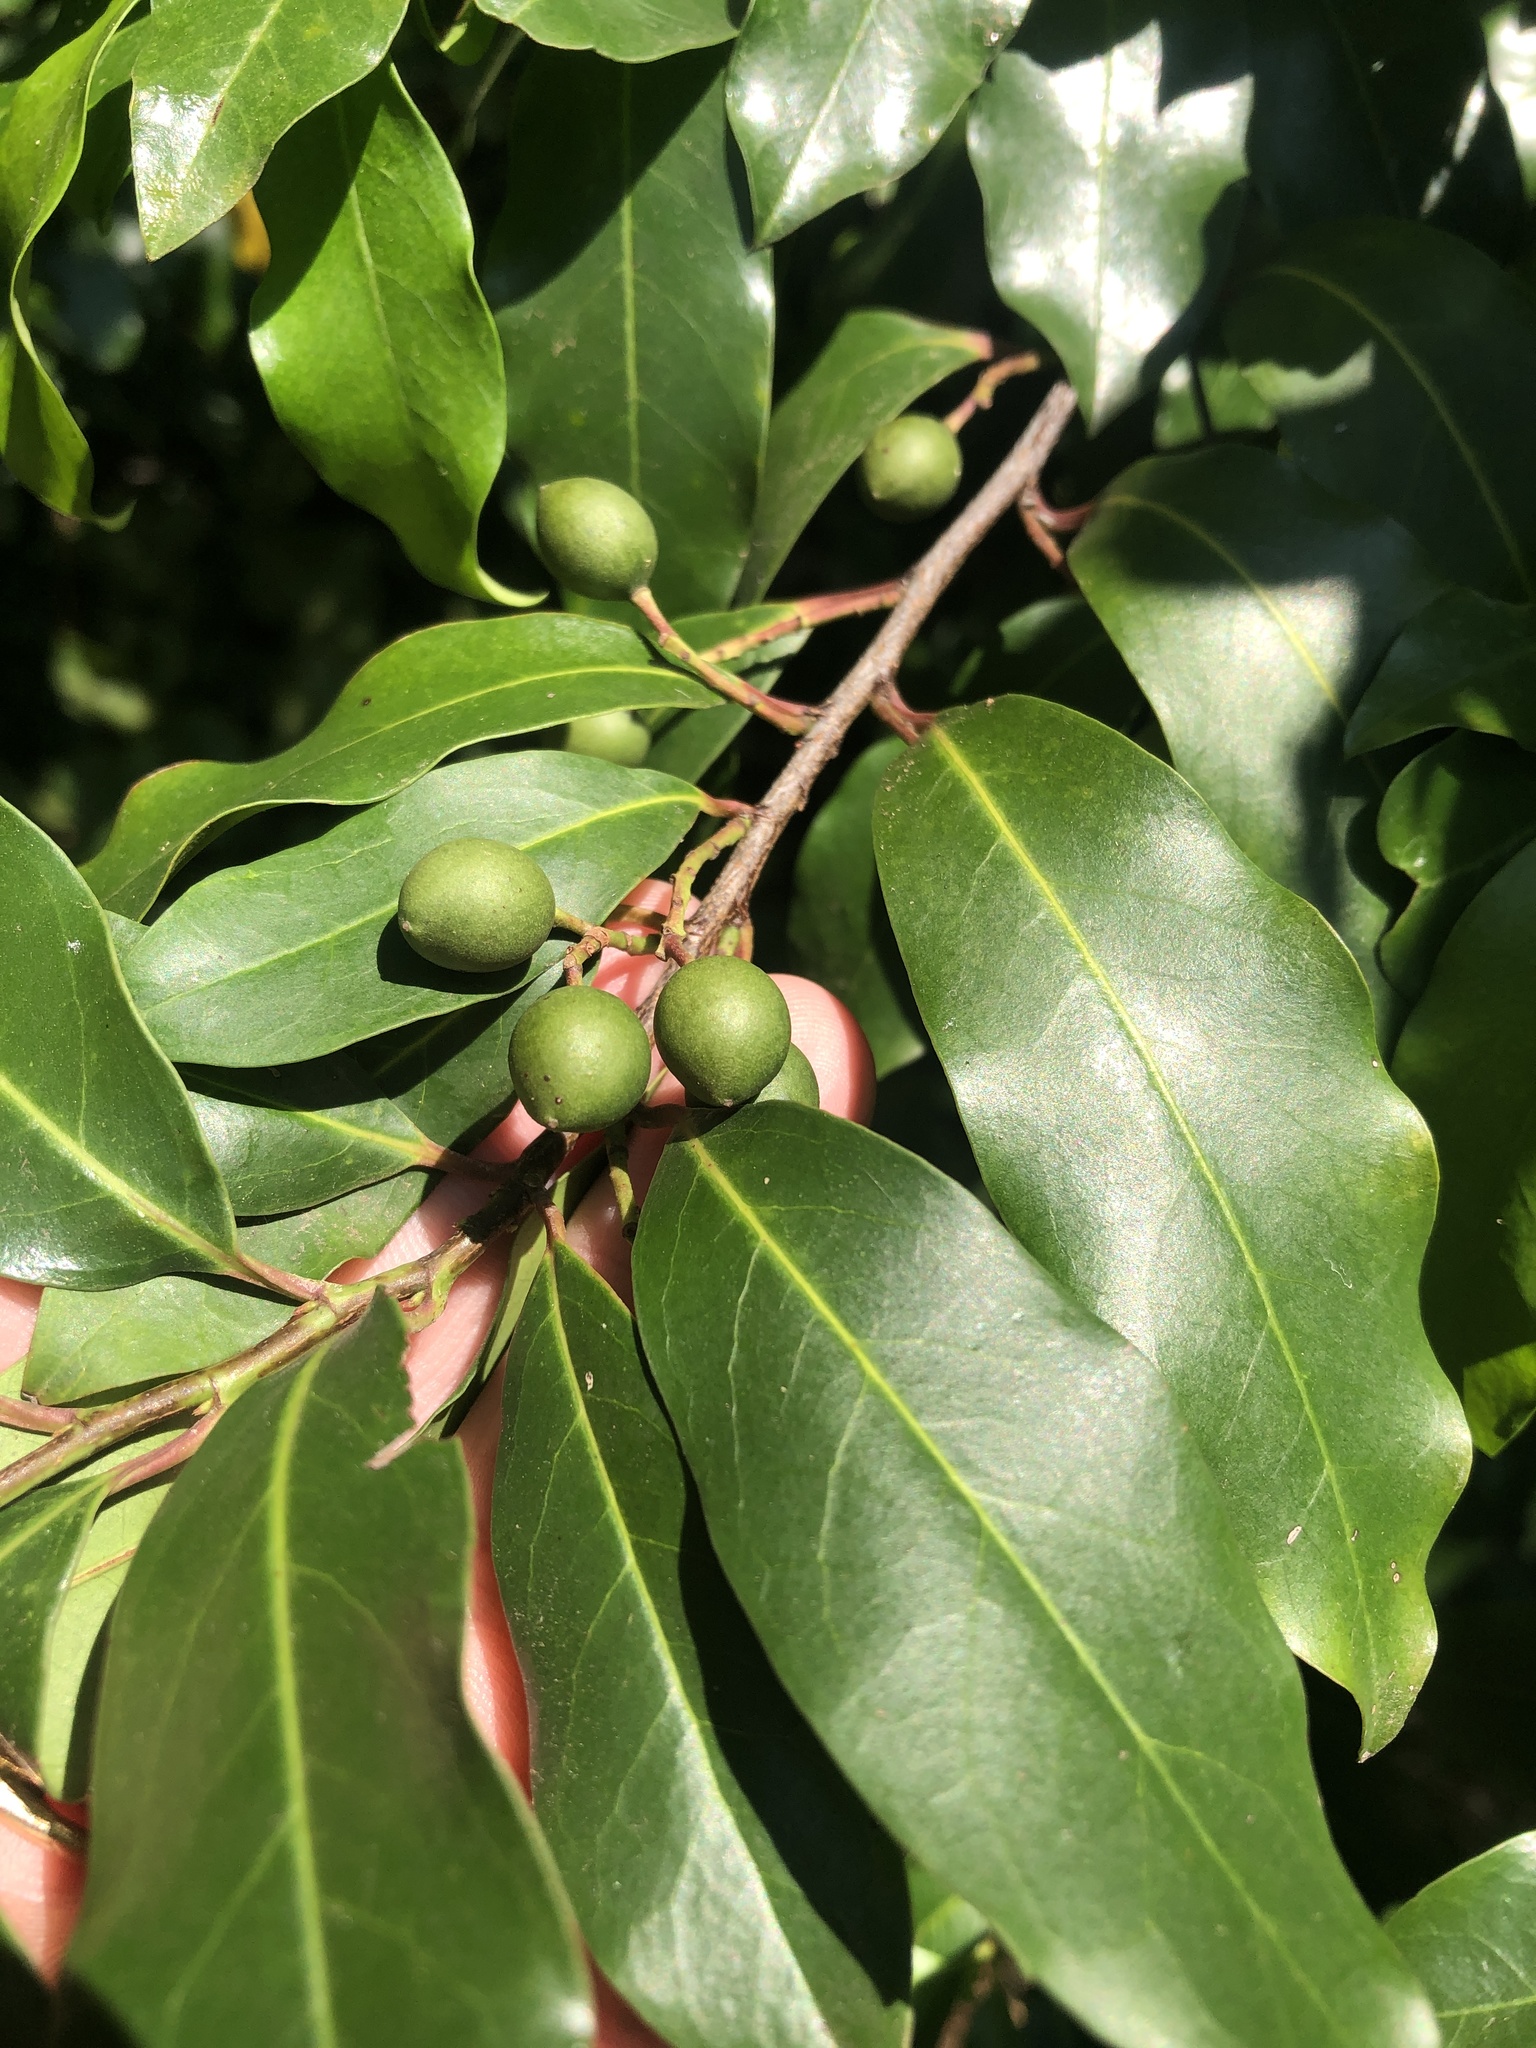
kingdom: Plantae
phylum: Tracheophyta
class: Magnoliopsida
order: Rosales
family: Rosaceae
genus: Prunus
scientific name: Prunus caroliniana
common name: Carolina laurel cherry
